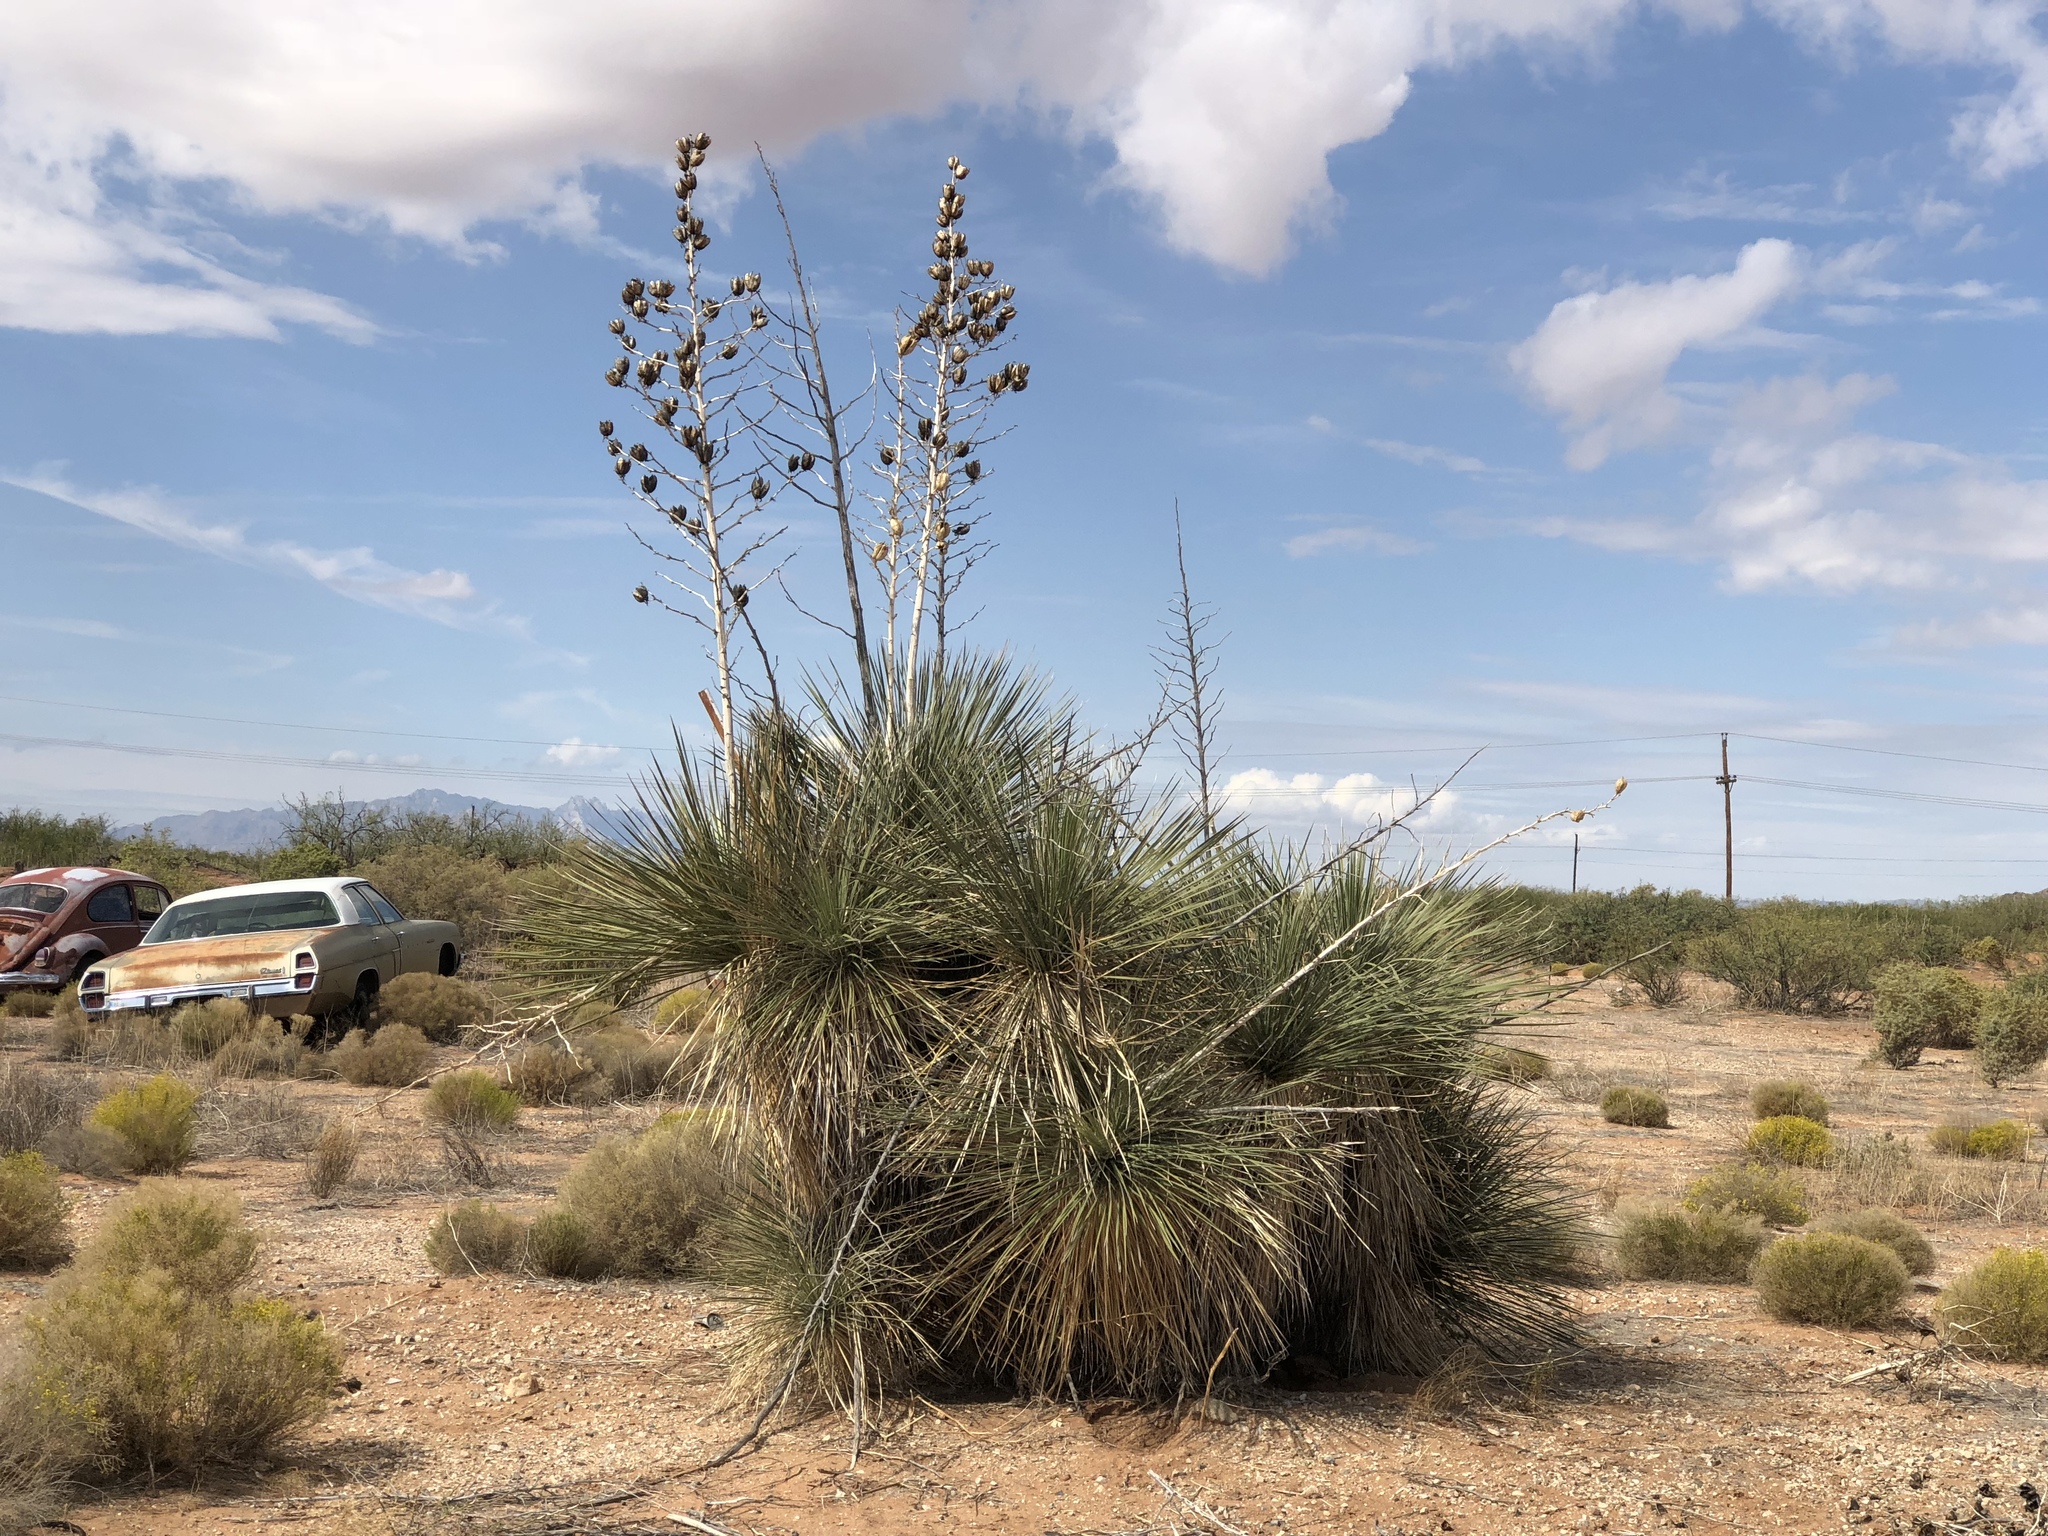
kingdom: Plantae
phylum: Tracheophyta
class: Liliopsida
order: Asparagales
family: Asparagaceae
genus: Yucca
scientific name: Yucca elata
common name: Palmella
